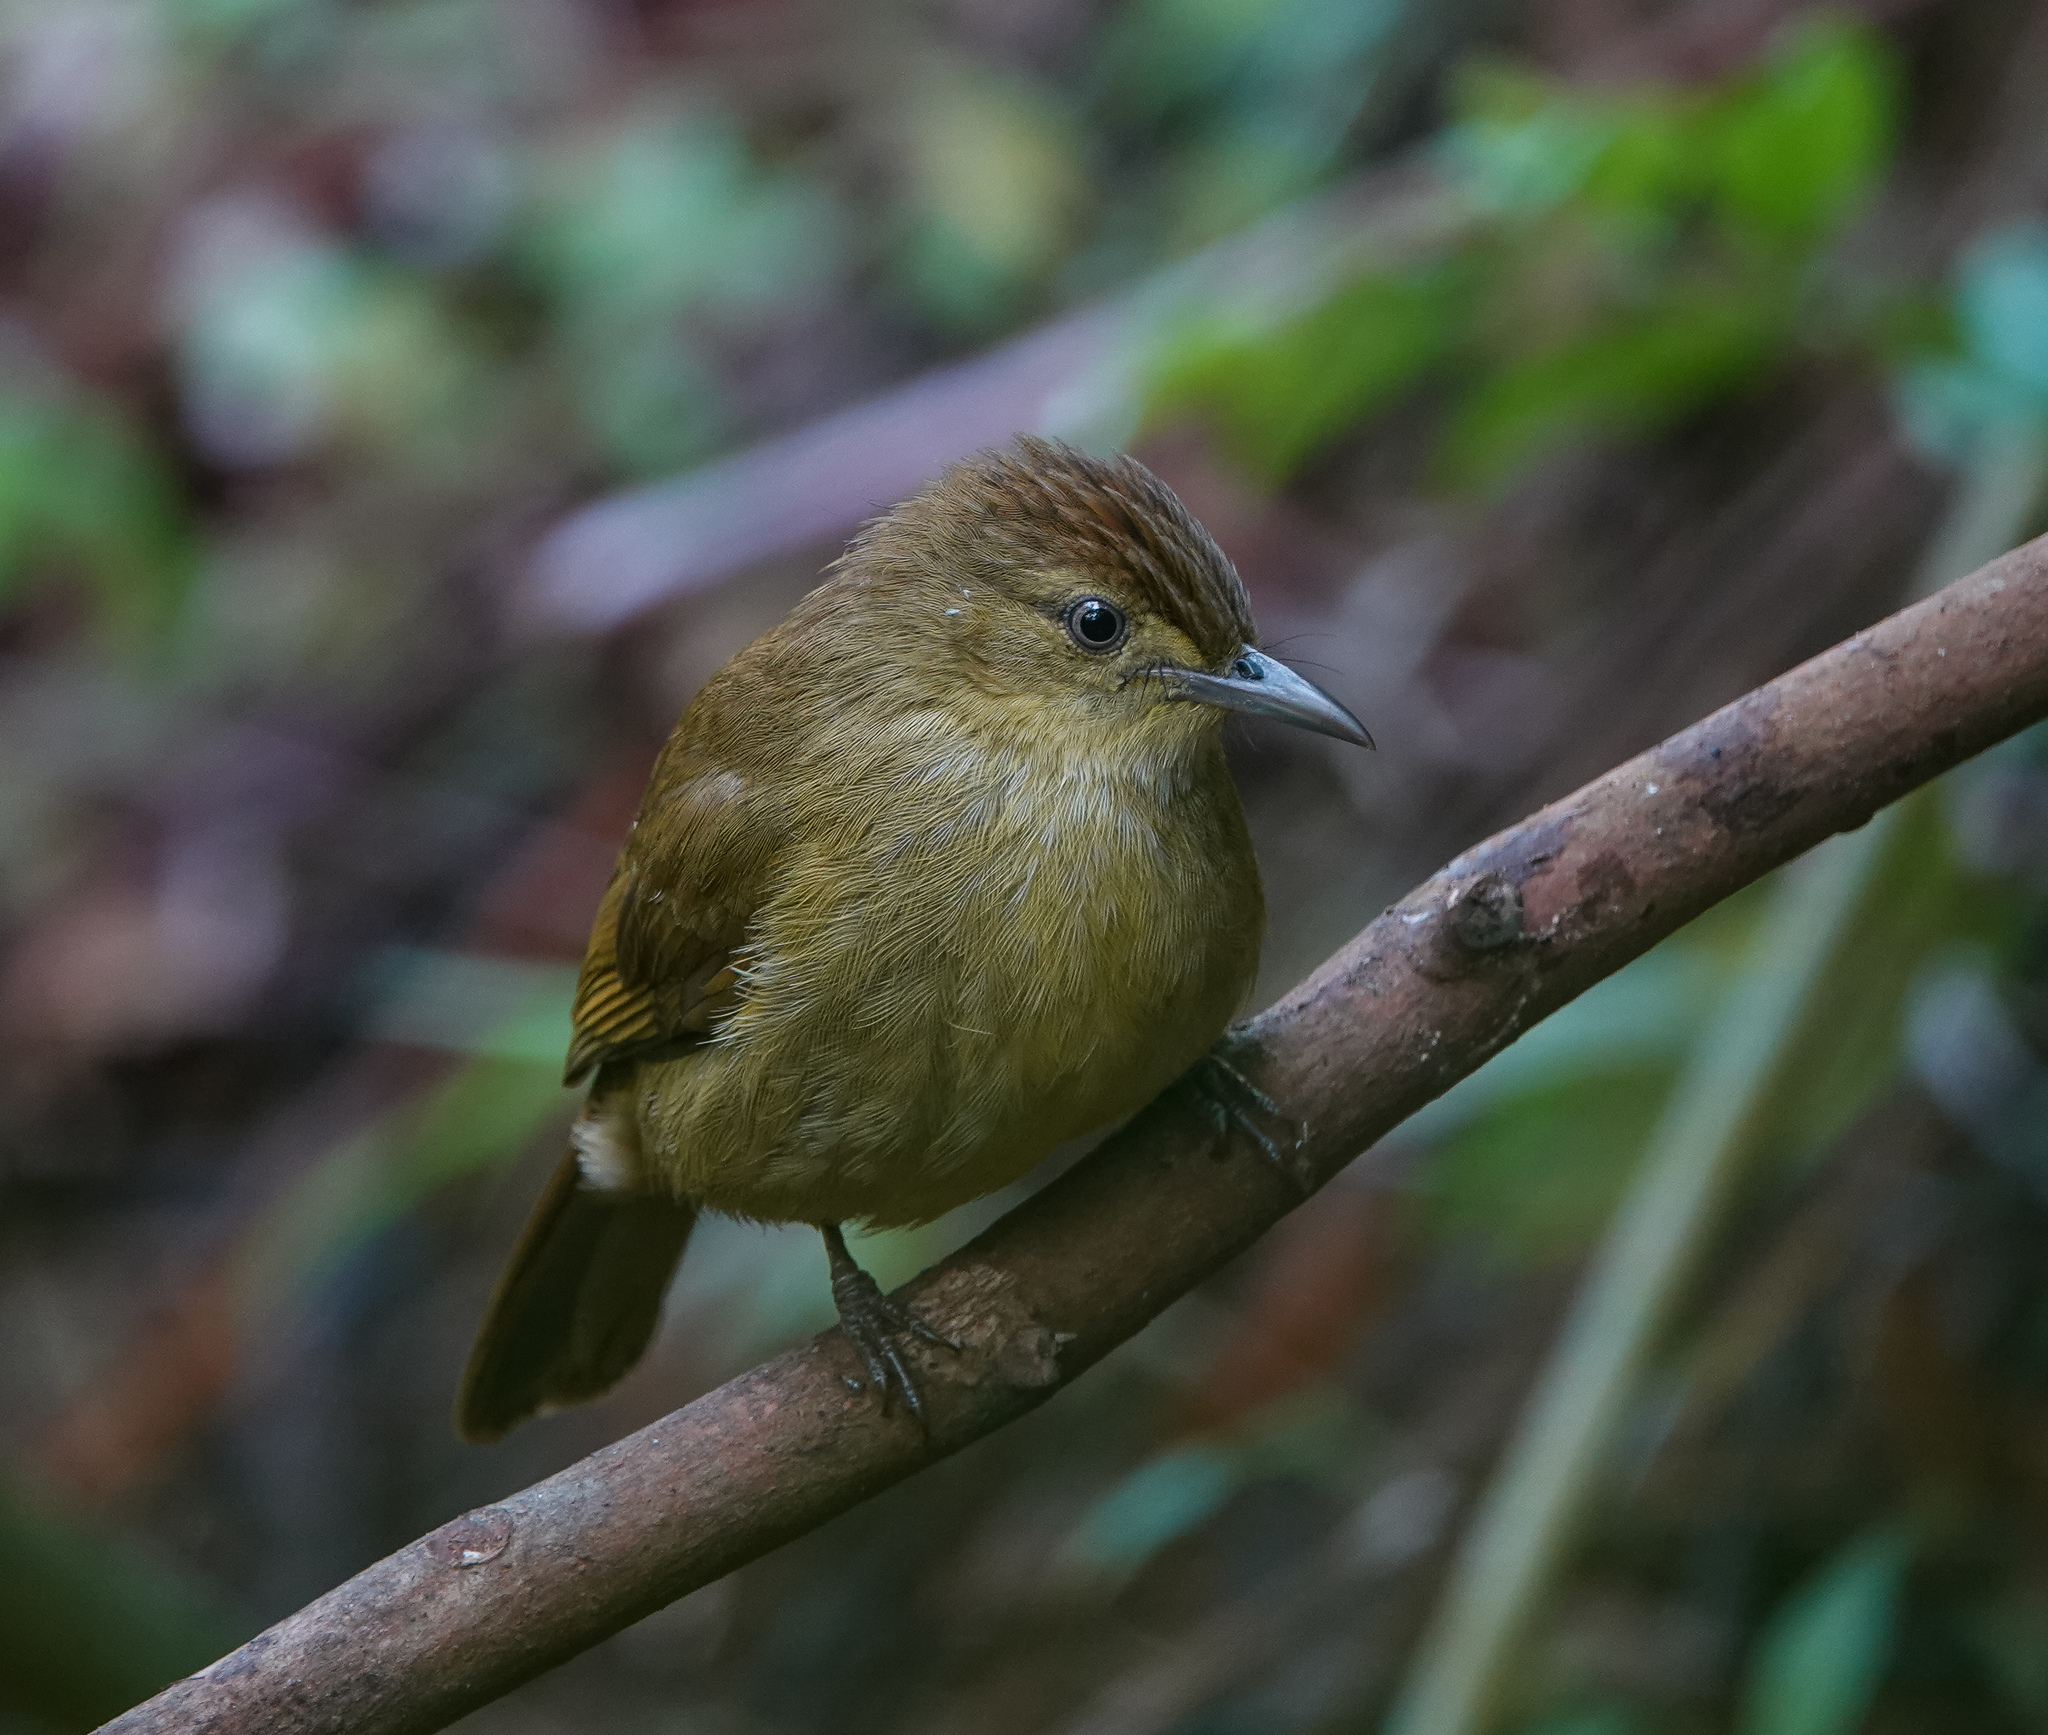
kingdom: Animalia
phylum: Chordata
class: Aves
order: Passeriformes
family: Pycnonotidae
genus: Iole
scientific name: Iole virescens
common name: Olive bulbul
